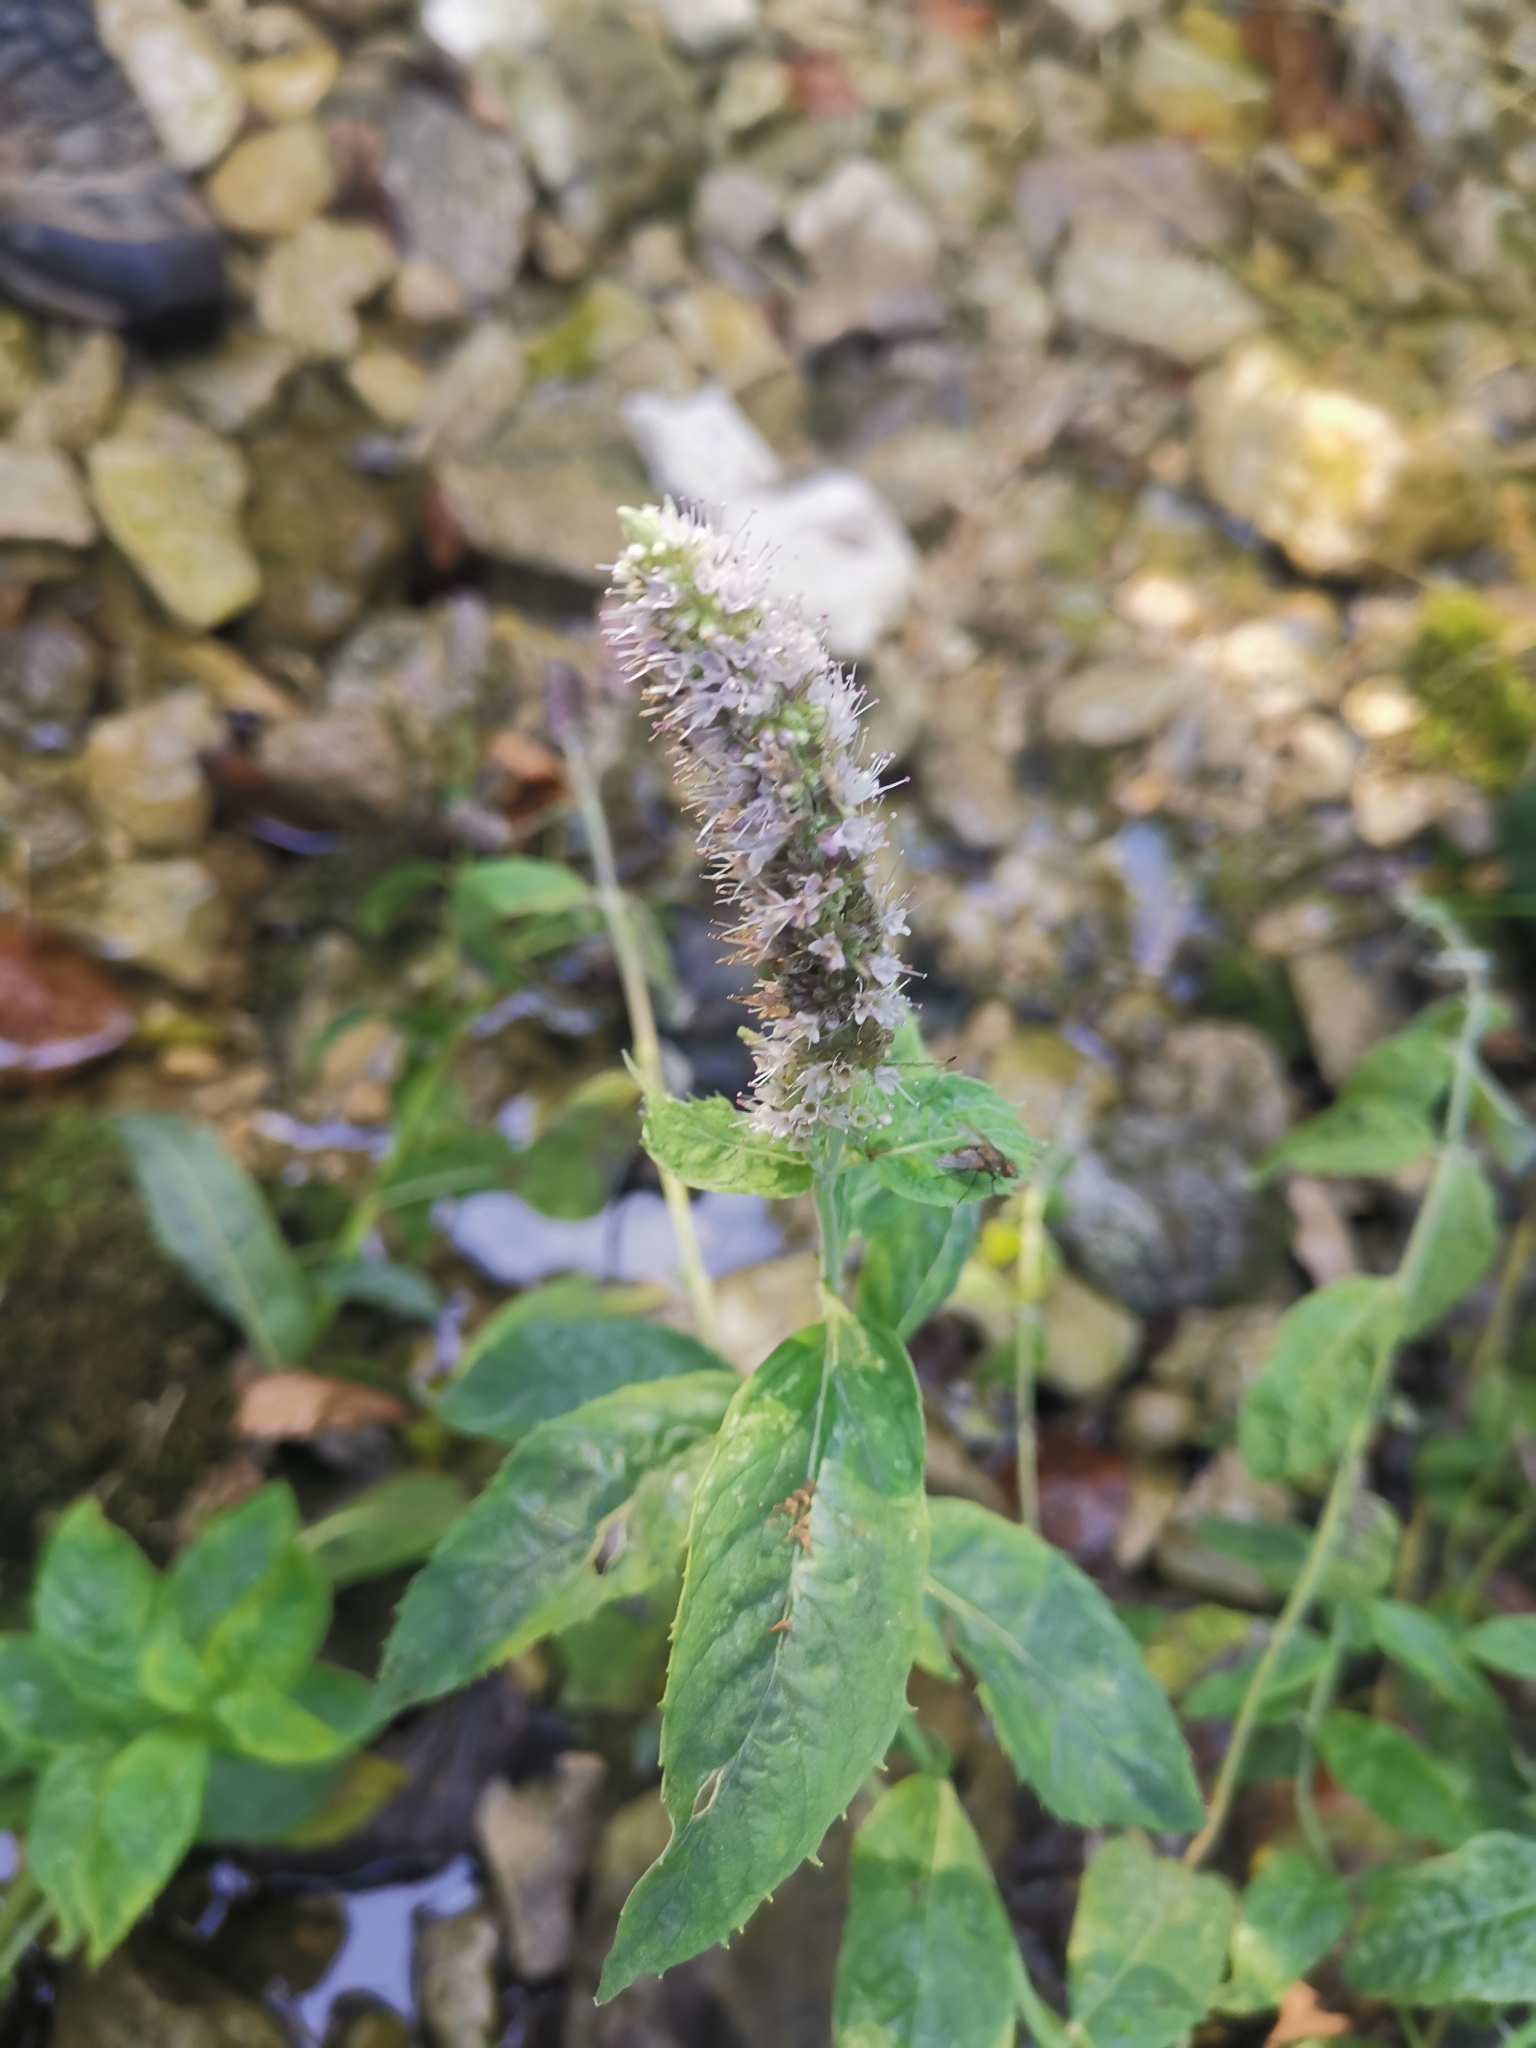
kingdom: Plantae
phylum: Tracheophyta
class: Magnoliopsida
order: Lamiales
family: Lamiaceae
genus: Mentha
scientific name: Mentha longifolia
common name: Horse mint
